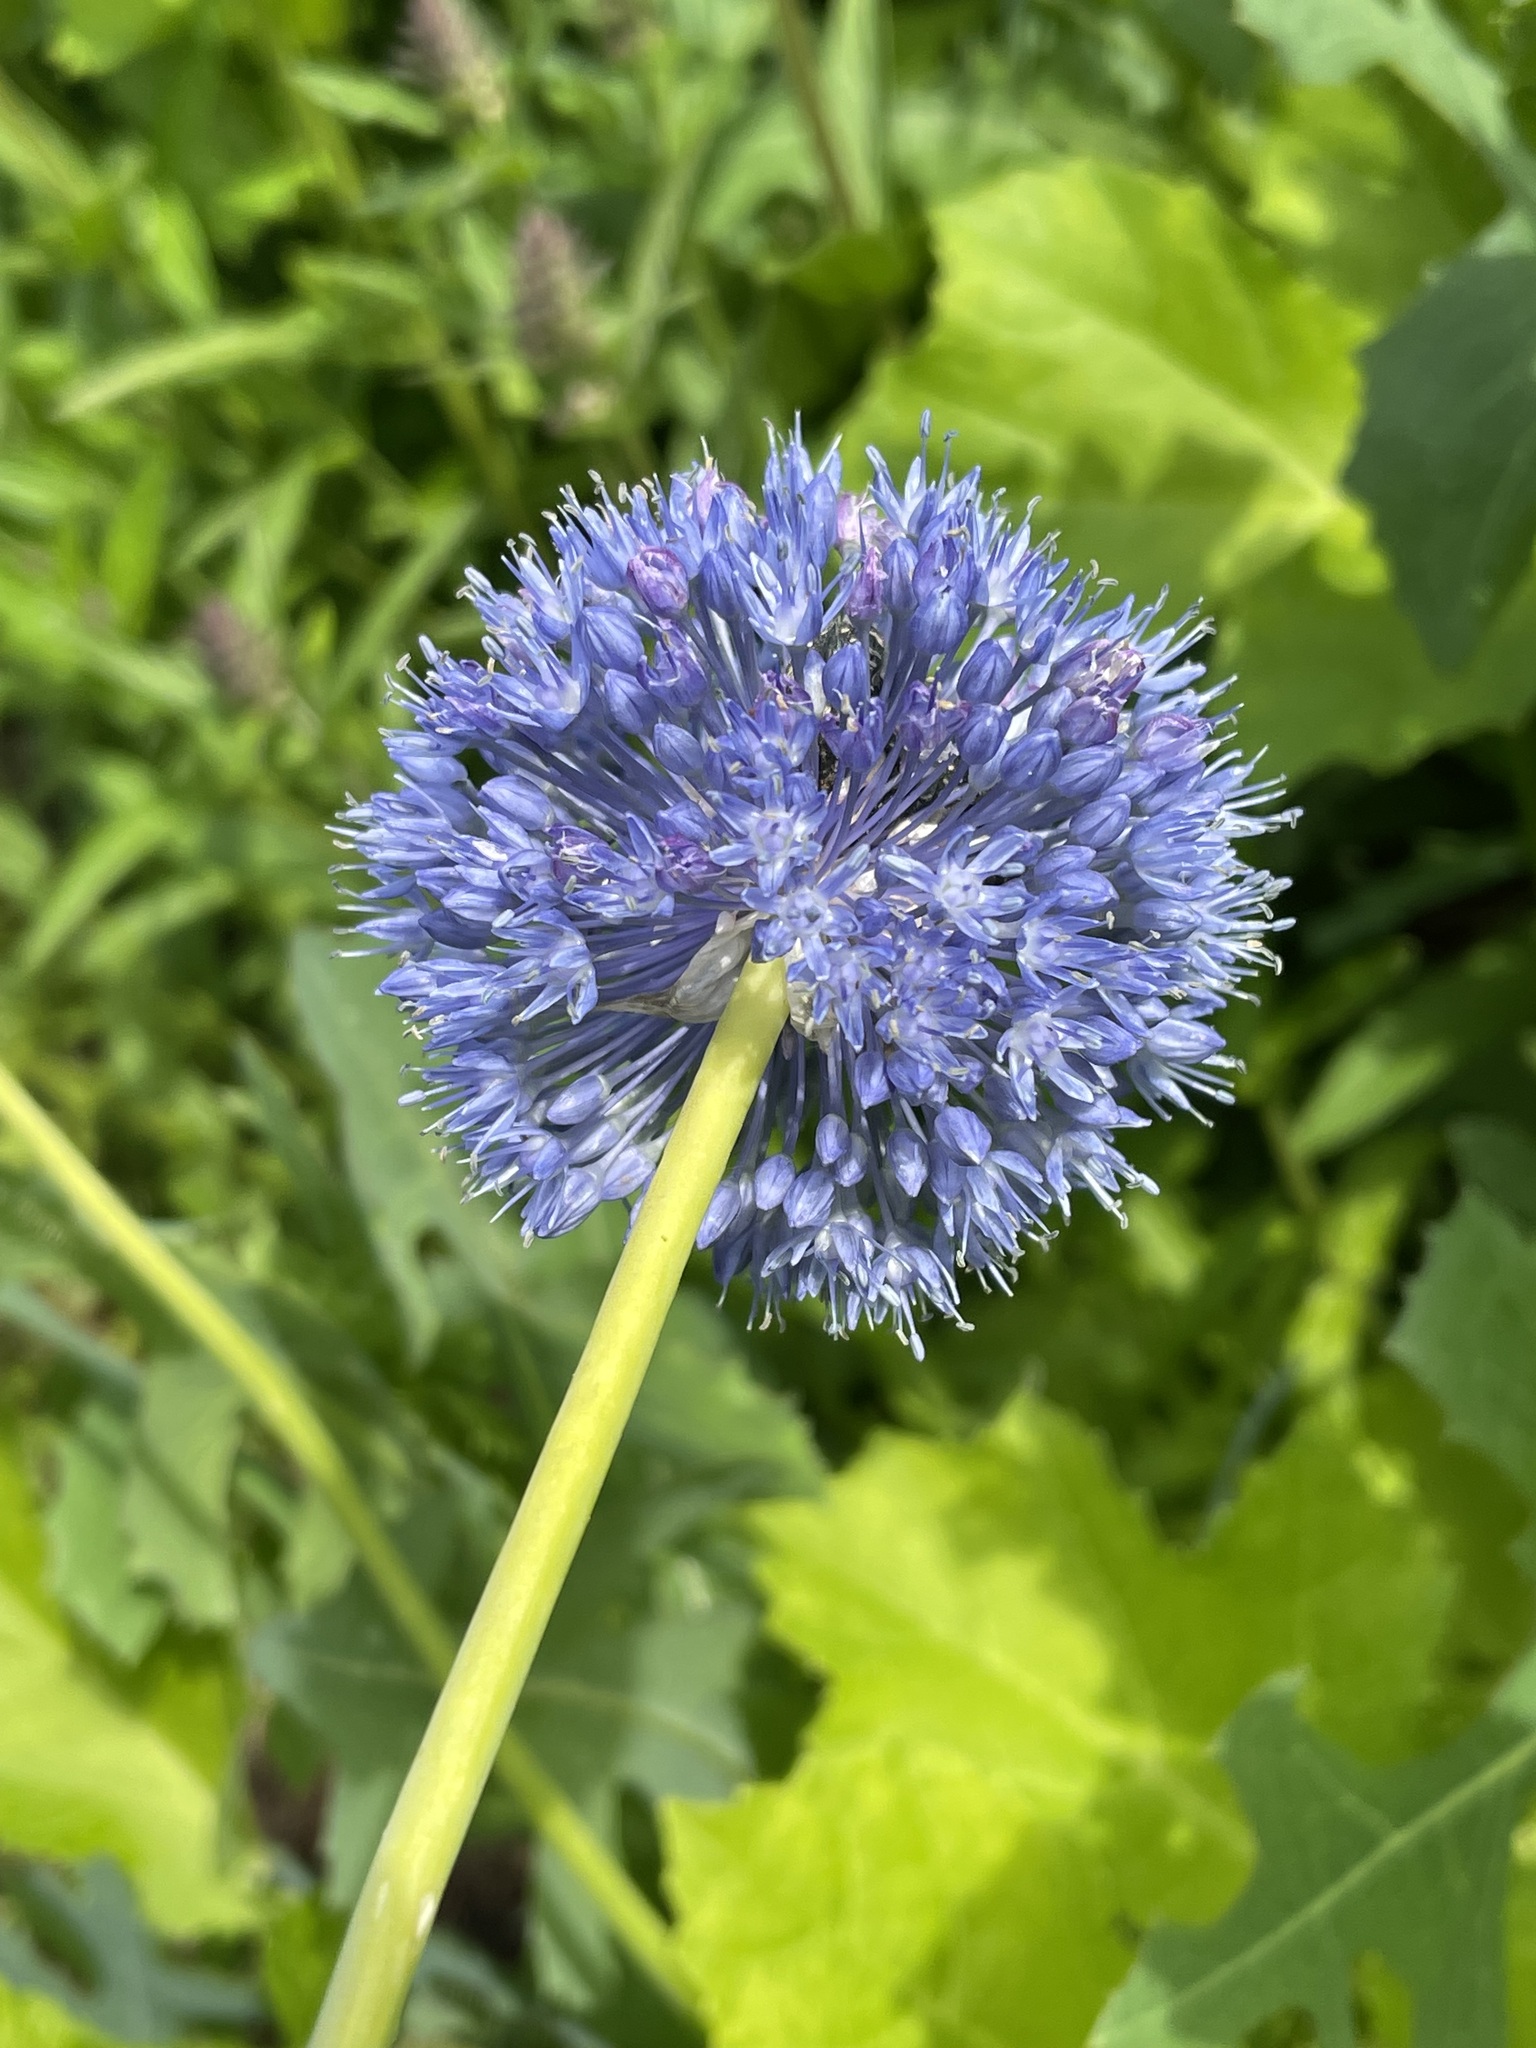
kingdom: Plantae
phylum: Tracheophyta
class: Liliopsida
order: Asparagales
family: Amaryllidaceae
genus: Allium
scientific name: Allium caeruleum
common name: Blue-of-the-heavens
